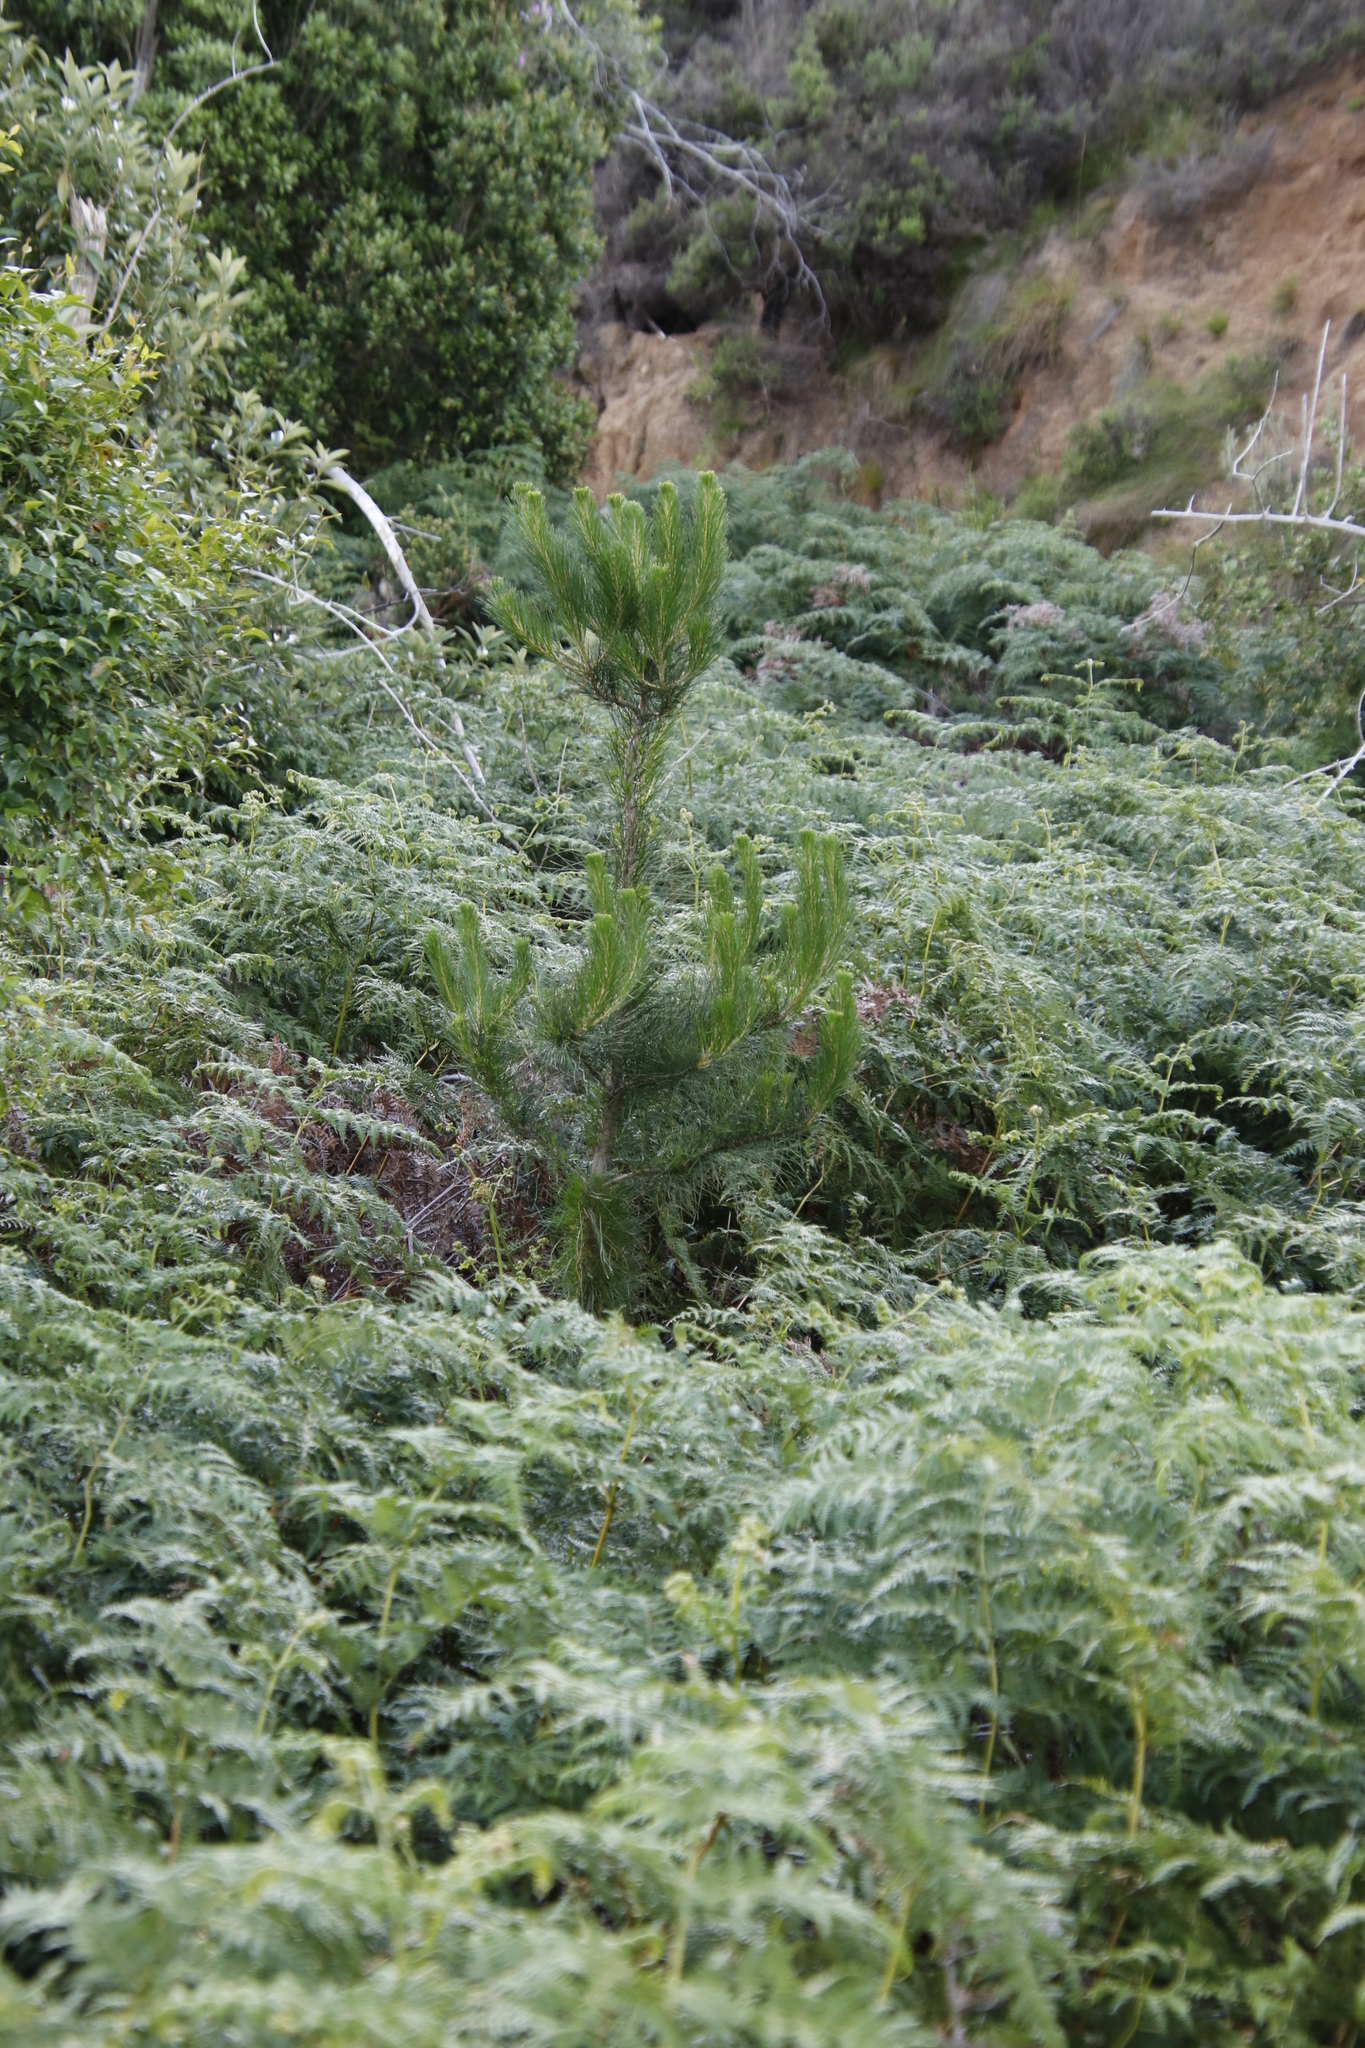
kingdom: Plantae
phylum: Tracheophyta
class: Pinopsida
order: Pinales
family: Pinaceae
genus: Pinus
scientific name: Pinus radiata
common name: Monterey pine
